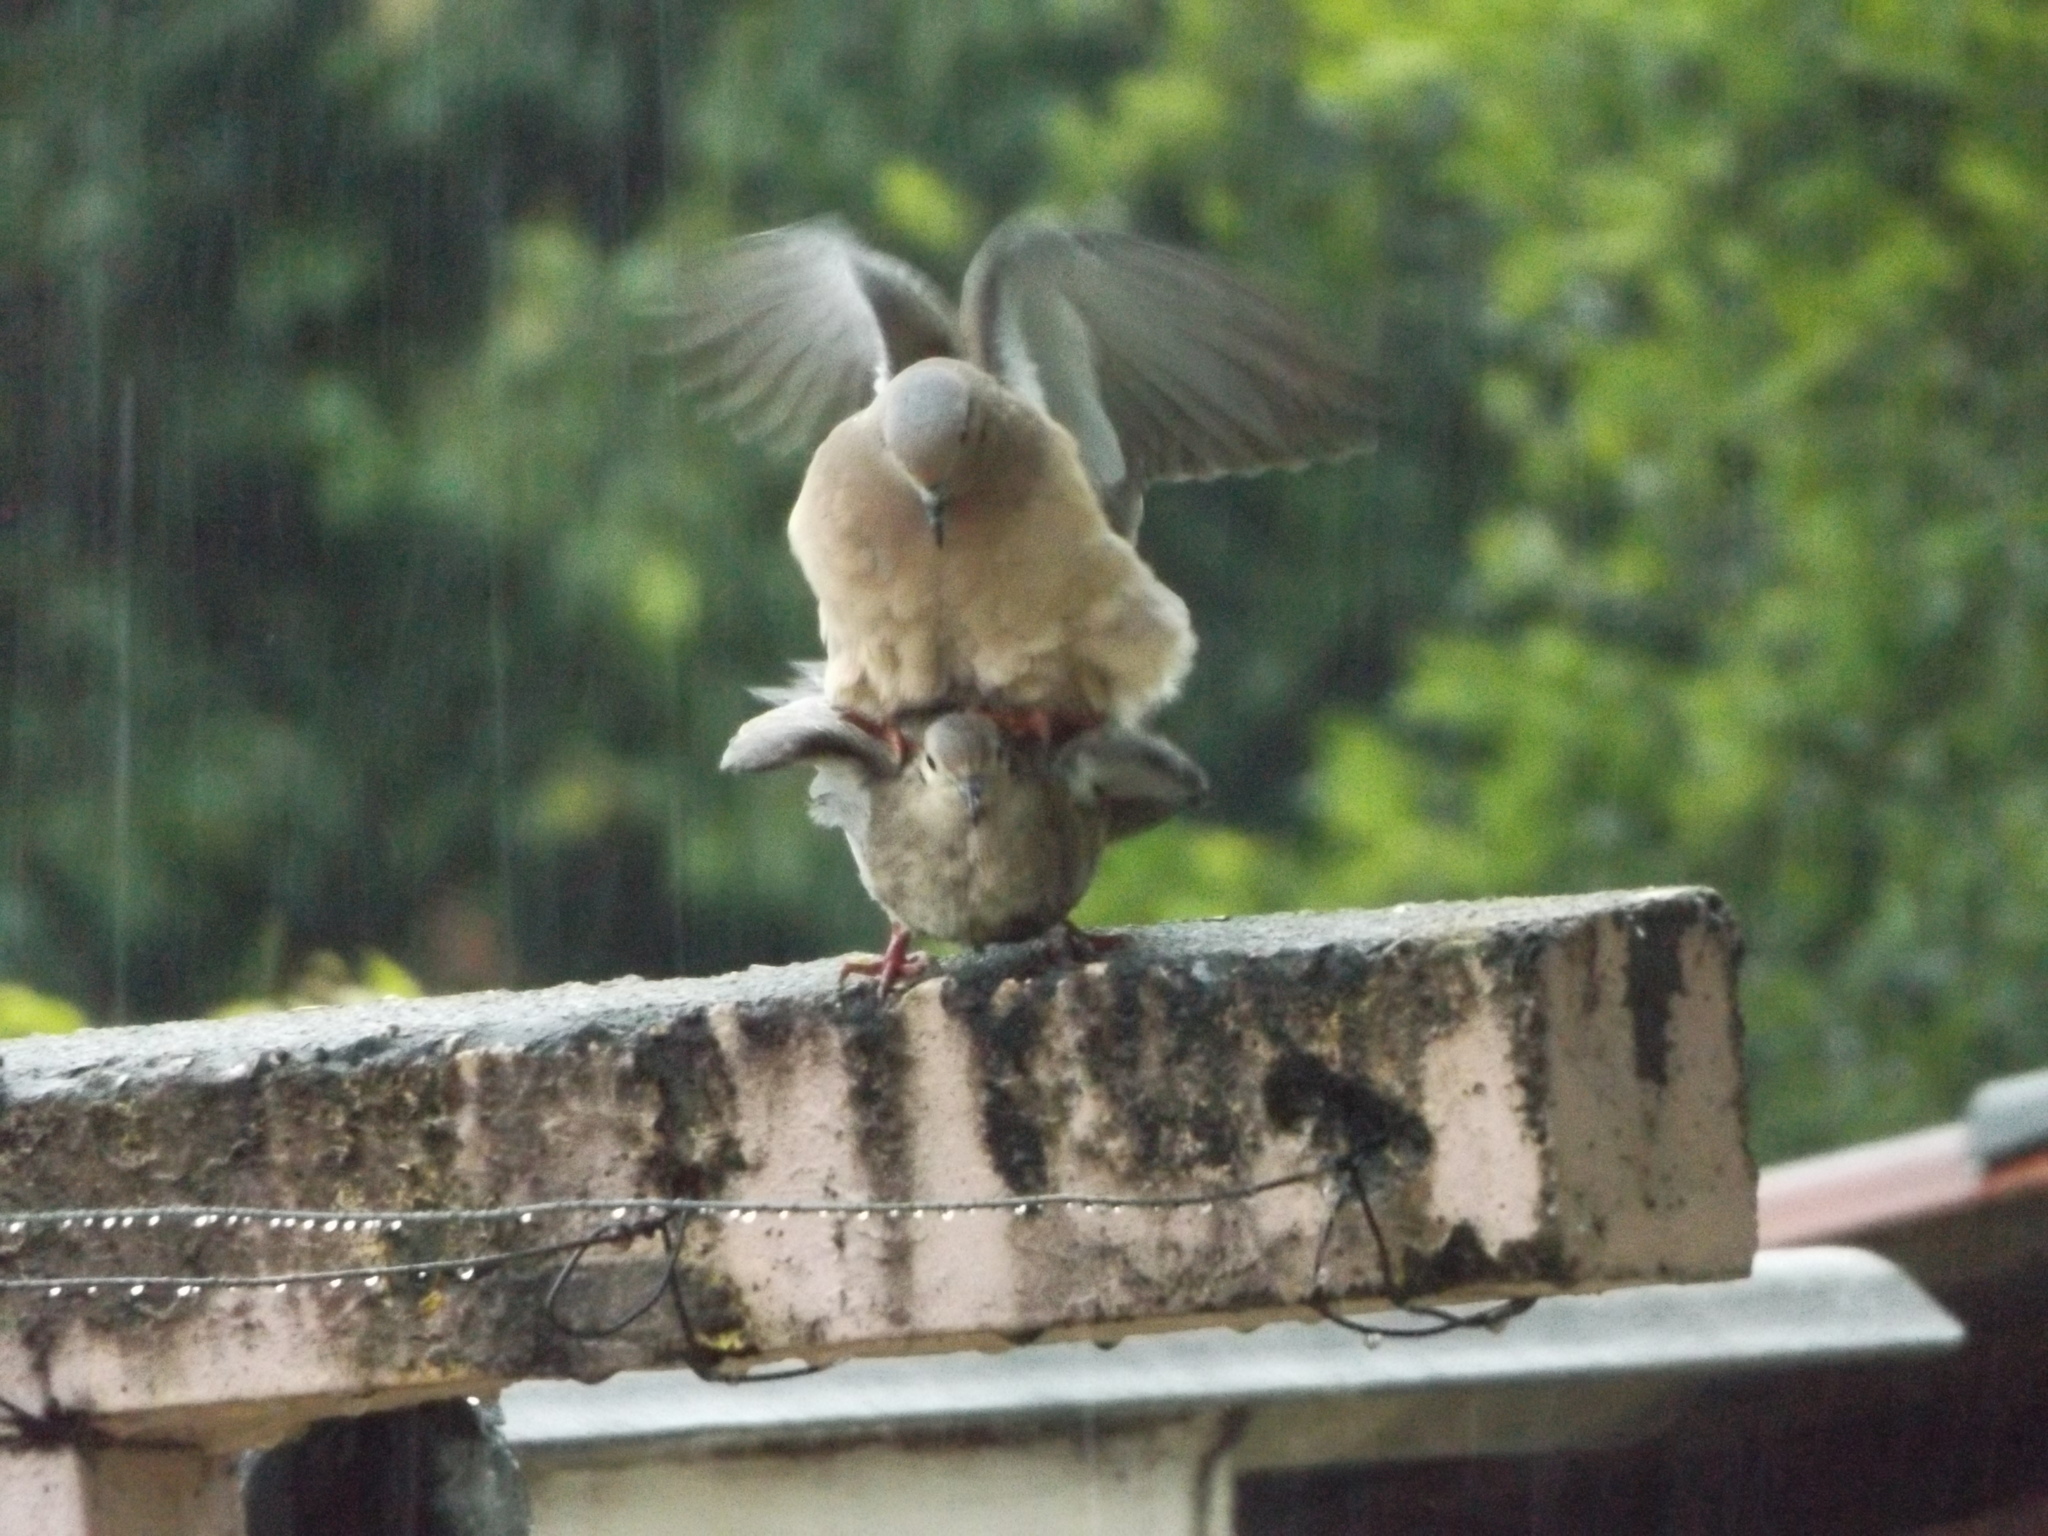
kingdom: Animalia
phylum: Chordata
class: Aves
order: Columbiformes
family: Columbidae
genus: Zenaida
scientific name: Zenaida auriculata
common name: Eared dove
